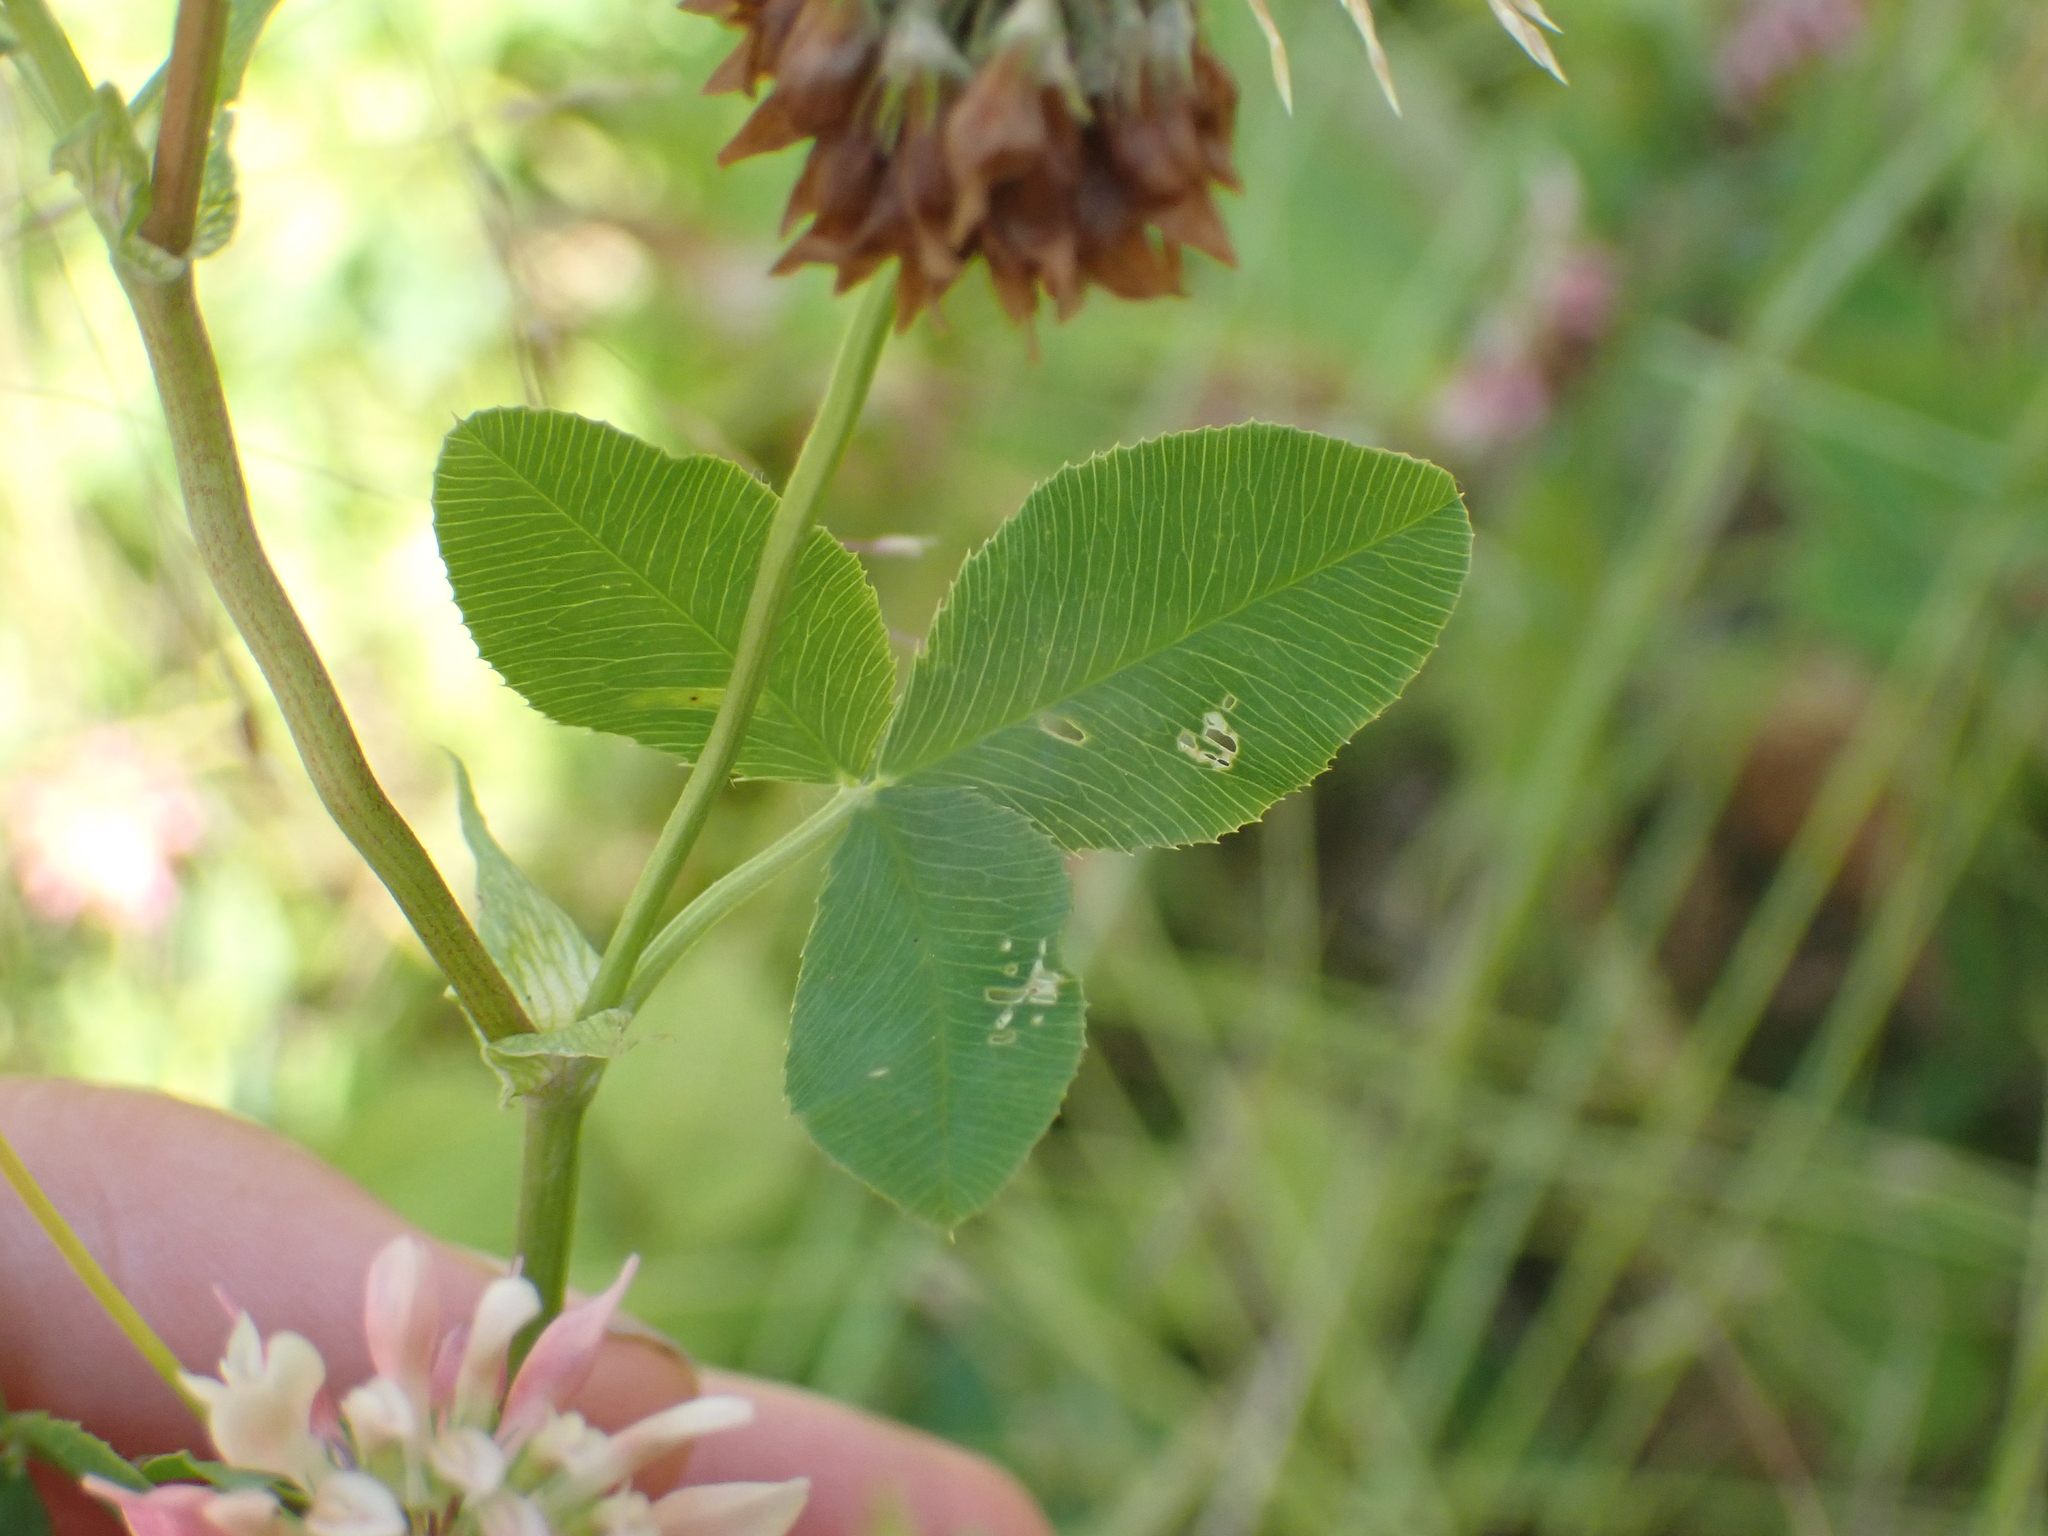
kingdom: Plantae
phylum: Tracheophyta
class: Magnoliopsida
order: Fabales
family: Fabaceae
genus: Trifolium
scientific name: Trifolium hybridum
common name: Alsike clover
